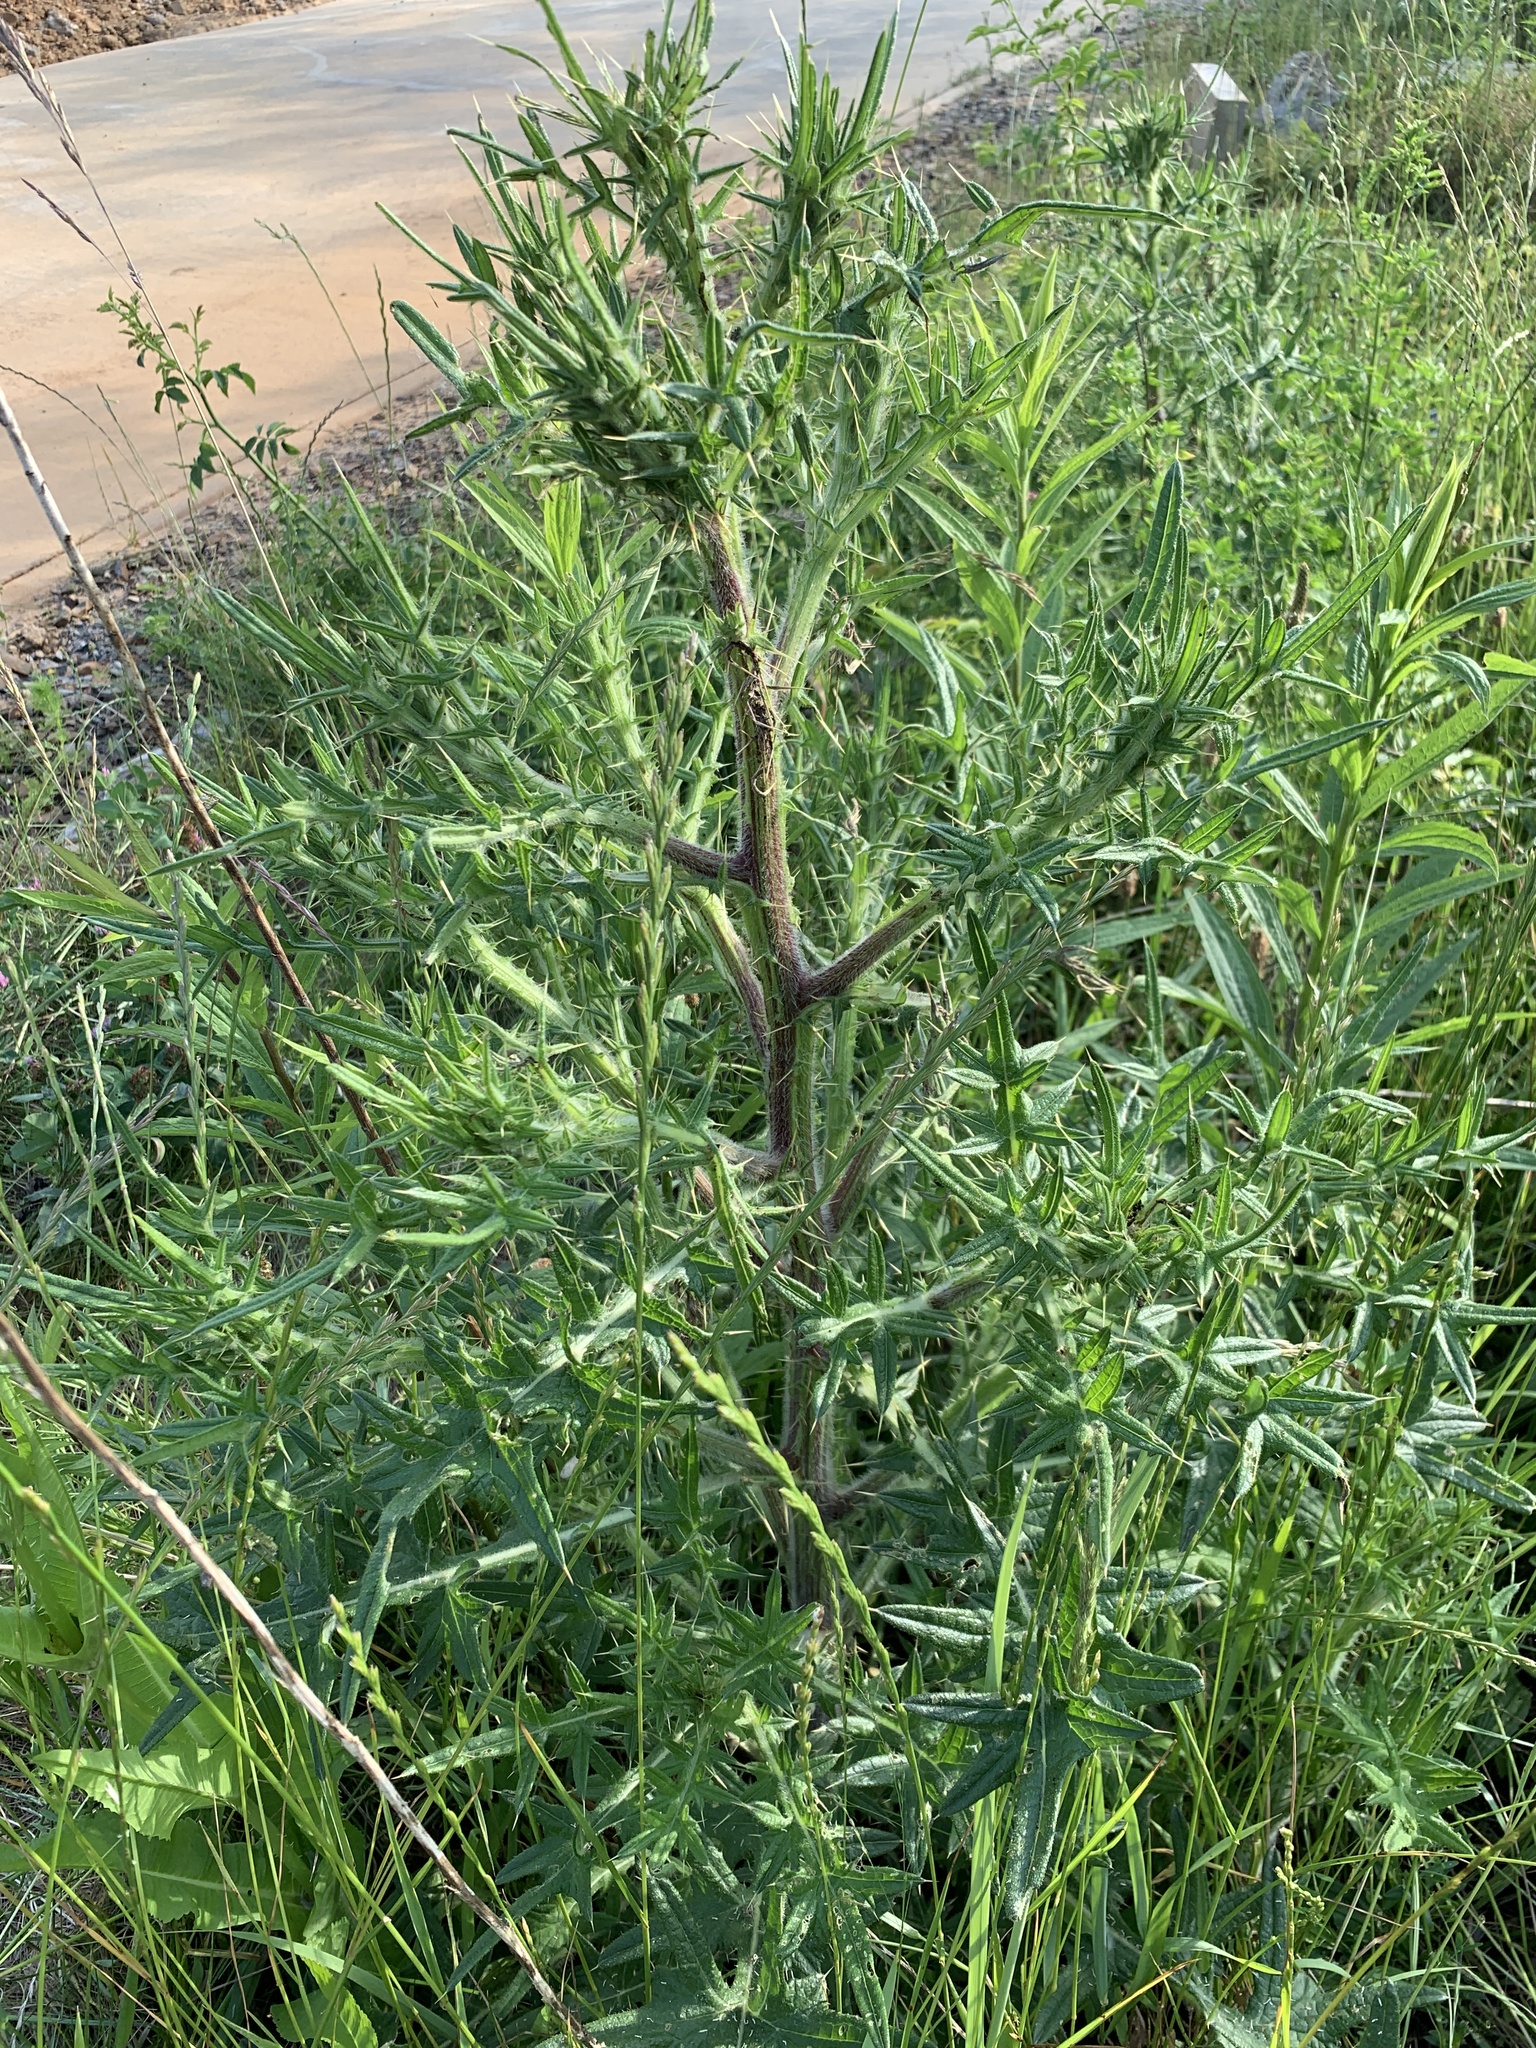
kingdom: Plantae
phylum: Tracheophyta
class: Magnoliopsida
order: Asterales
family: Asteraceae
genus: Cirsium
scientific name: Cirsium vulgare
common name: Bull thistle
